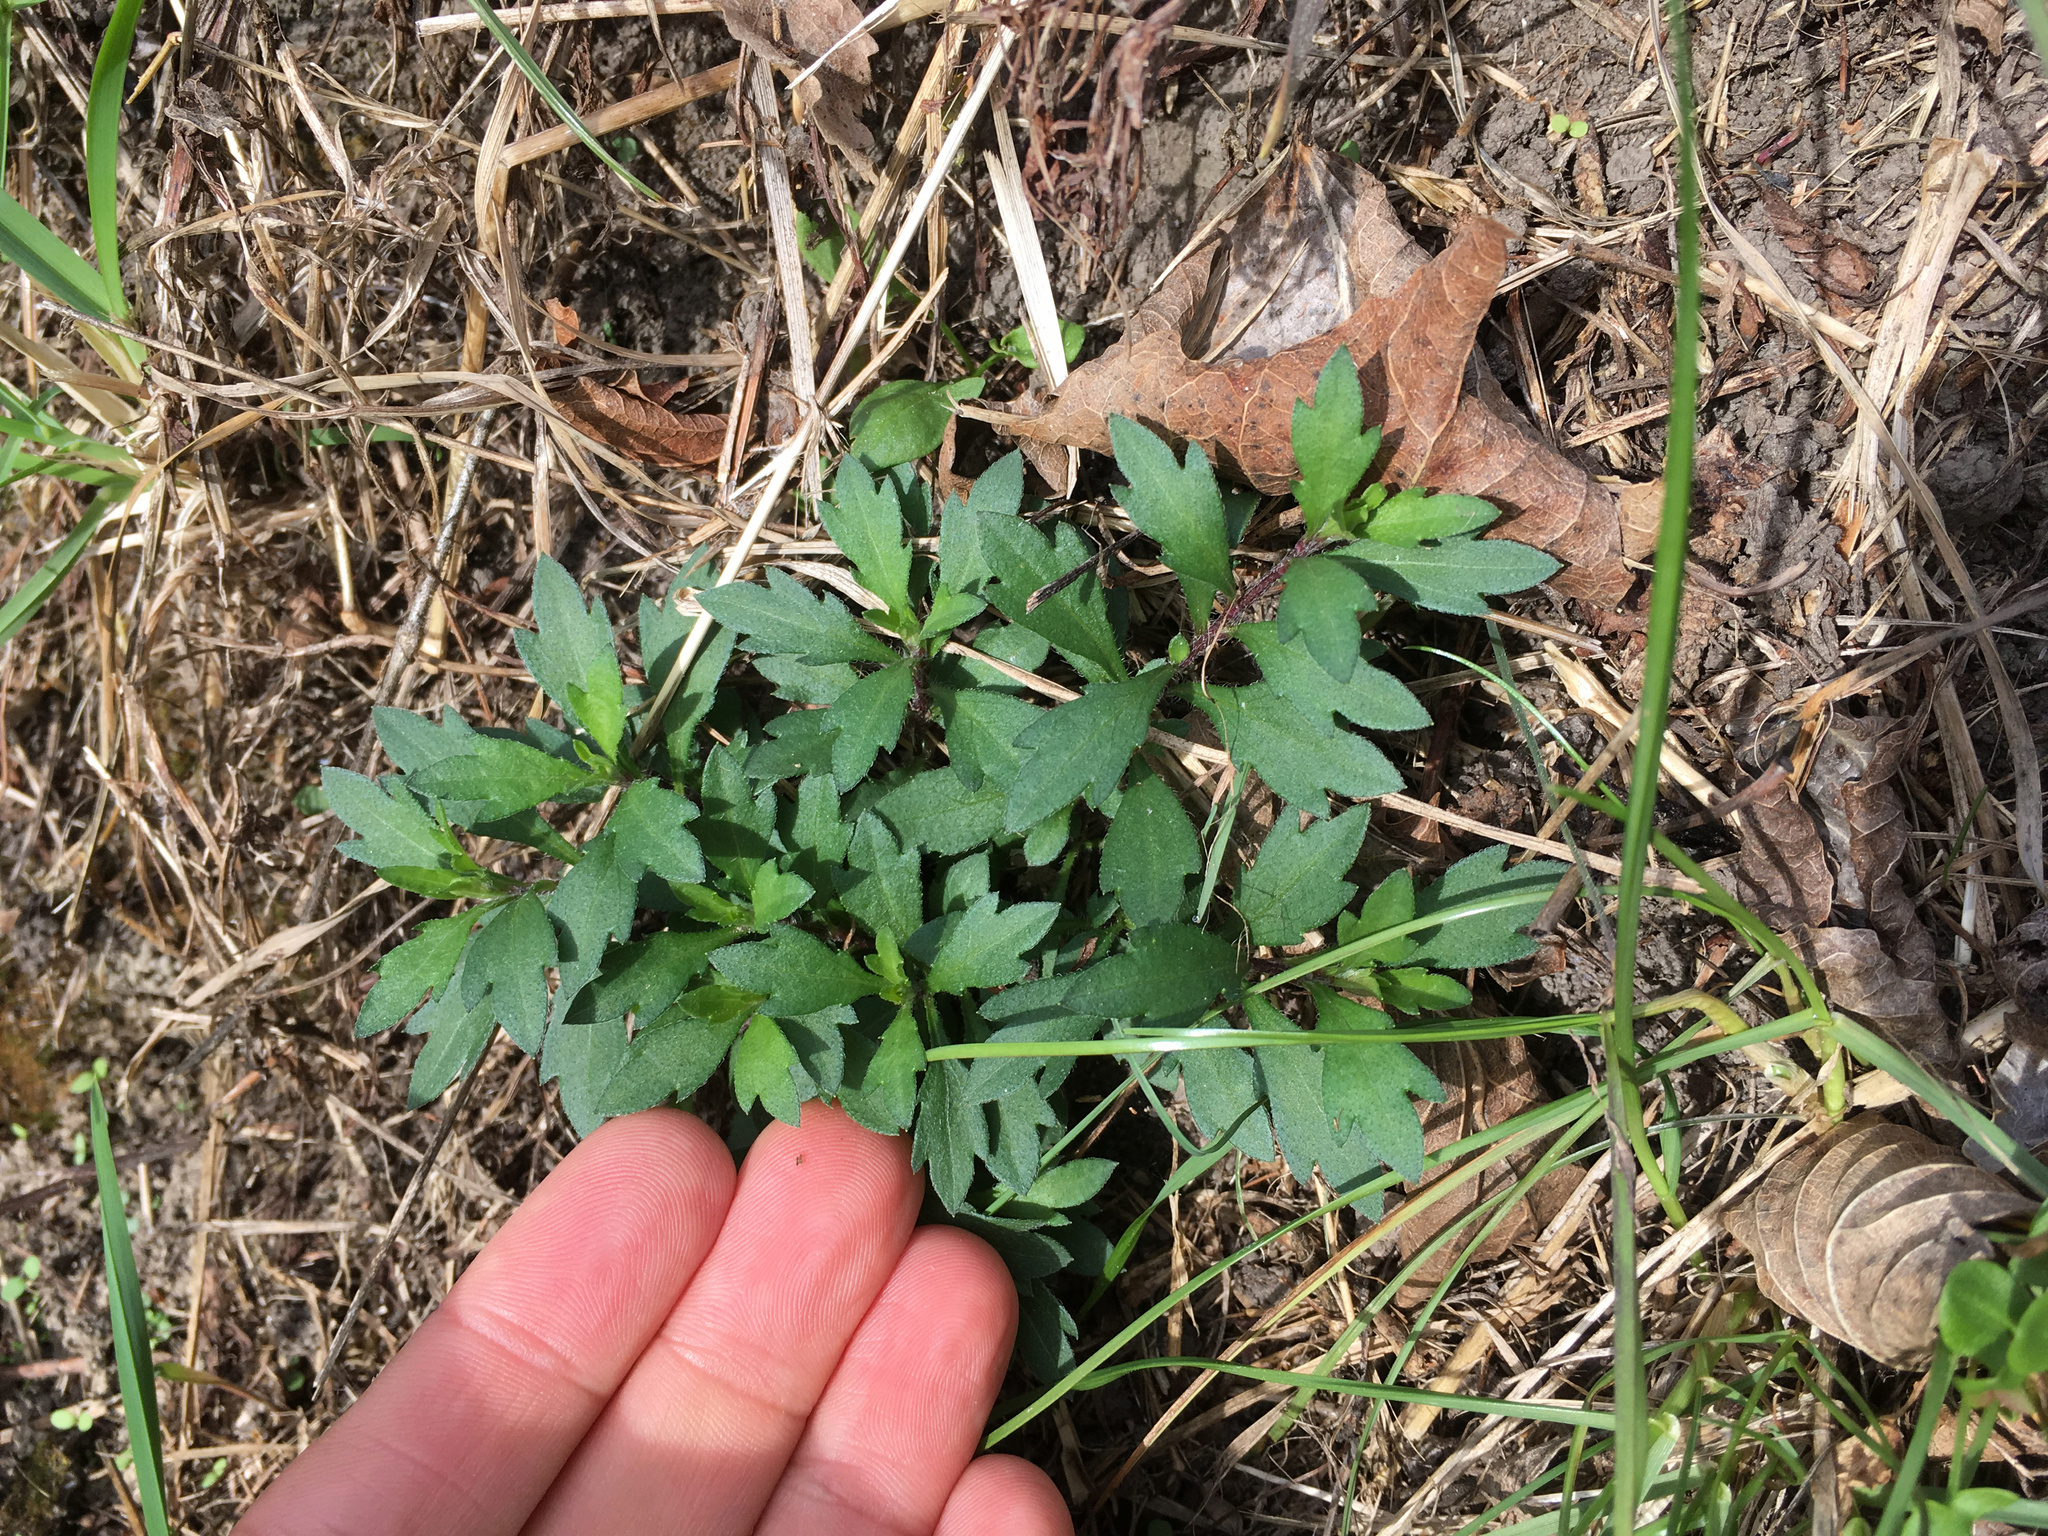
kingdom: Plantae
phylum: Tracheophyta
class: Magnoliopsida
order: Asterales
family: Asteraceae
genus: Erigeron
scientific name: Erigeron karvinskianus
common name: Mexican fleabane
